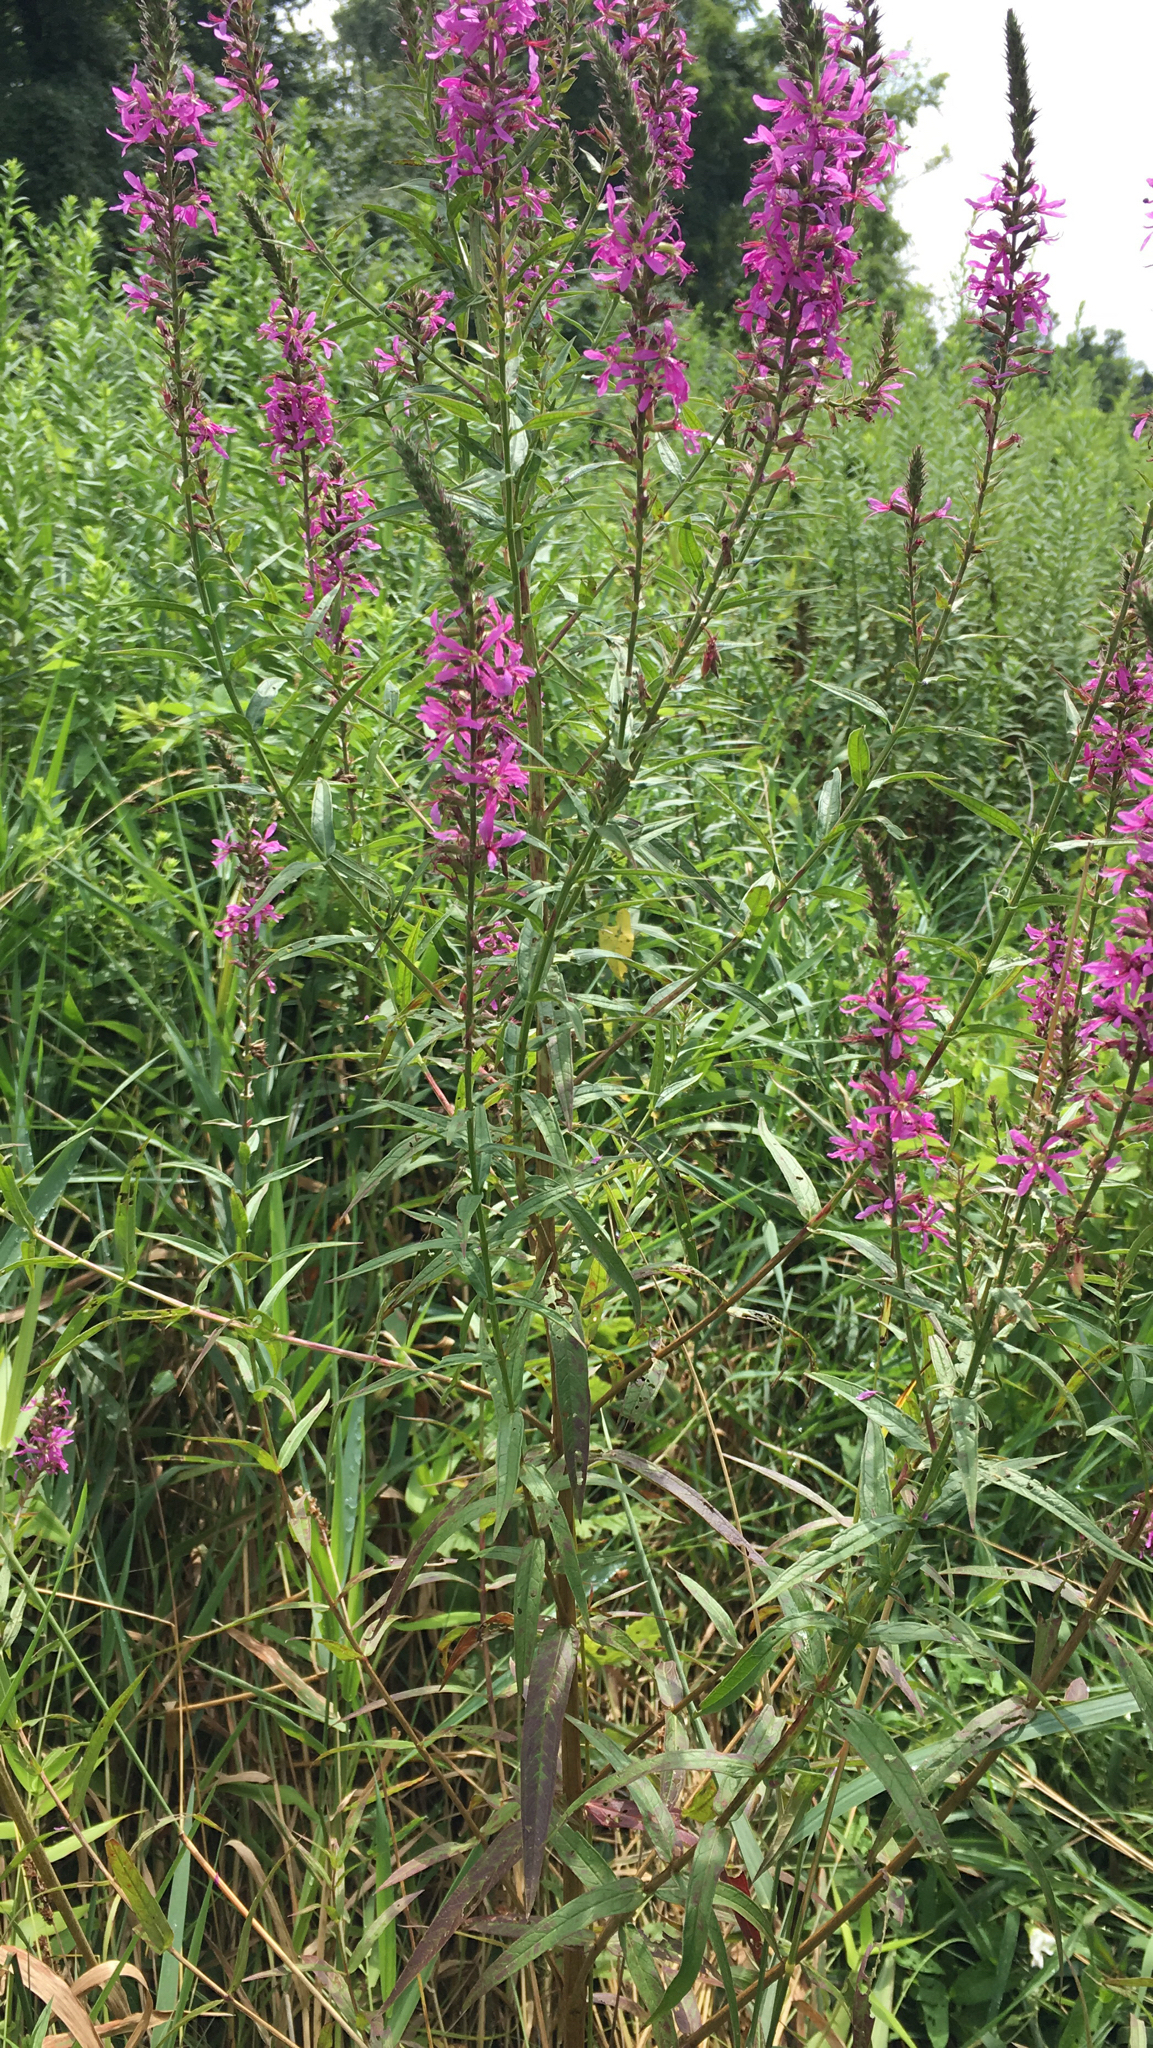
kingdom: Plantae
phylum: Tracheophyta
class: Magnoliopsida
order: Myrtales
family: Lythraceae
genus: Lythrum
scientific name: Lythrum salicaria
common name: Purple loosestrife
